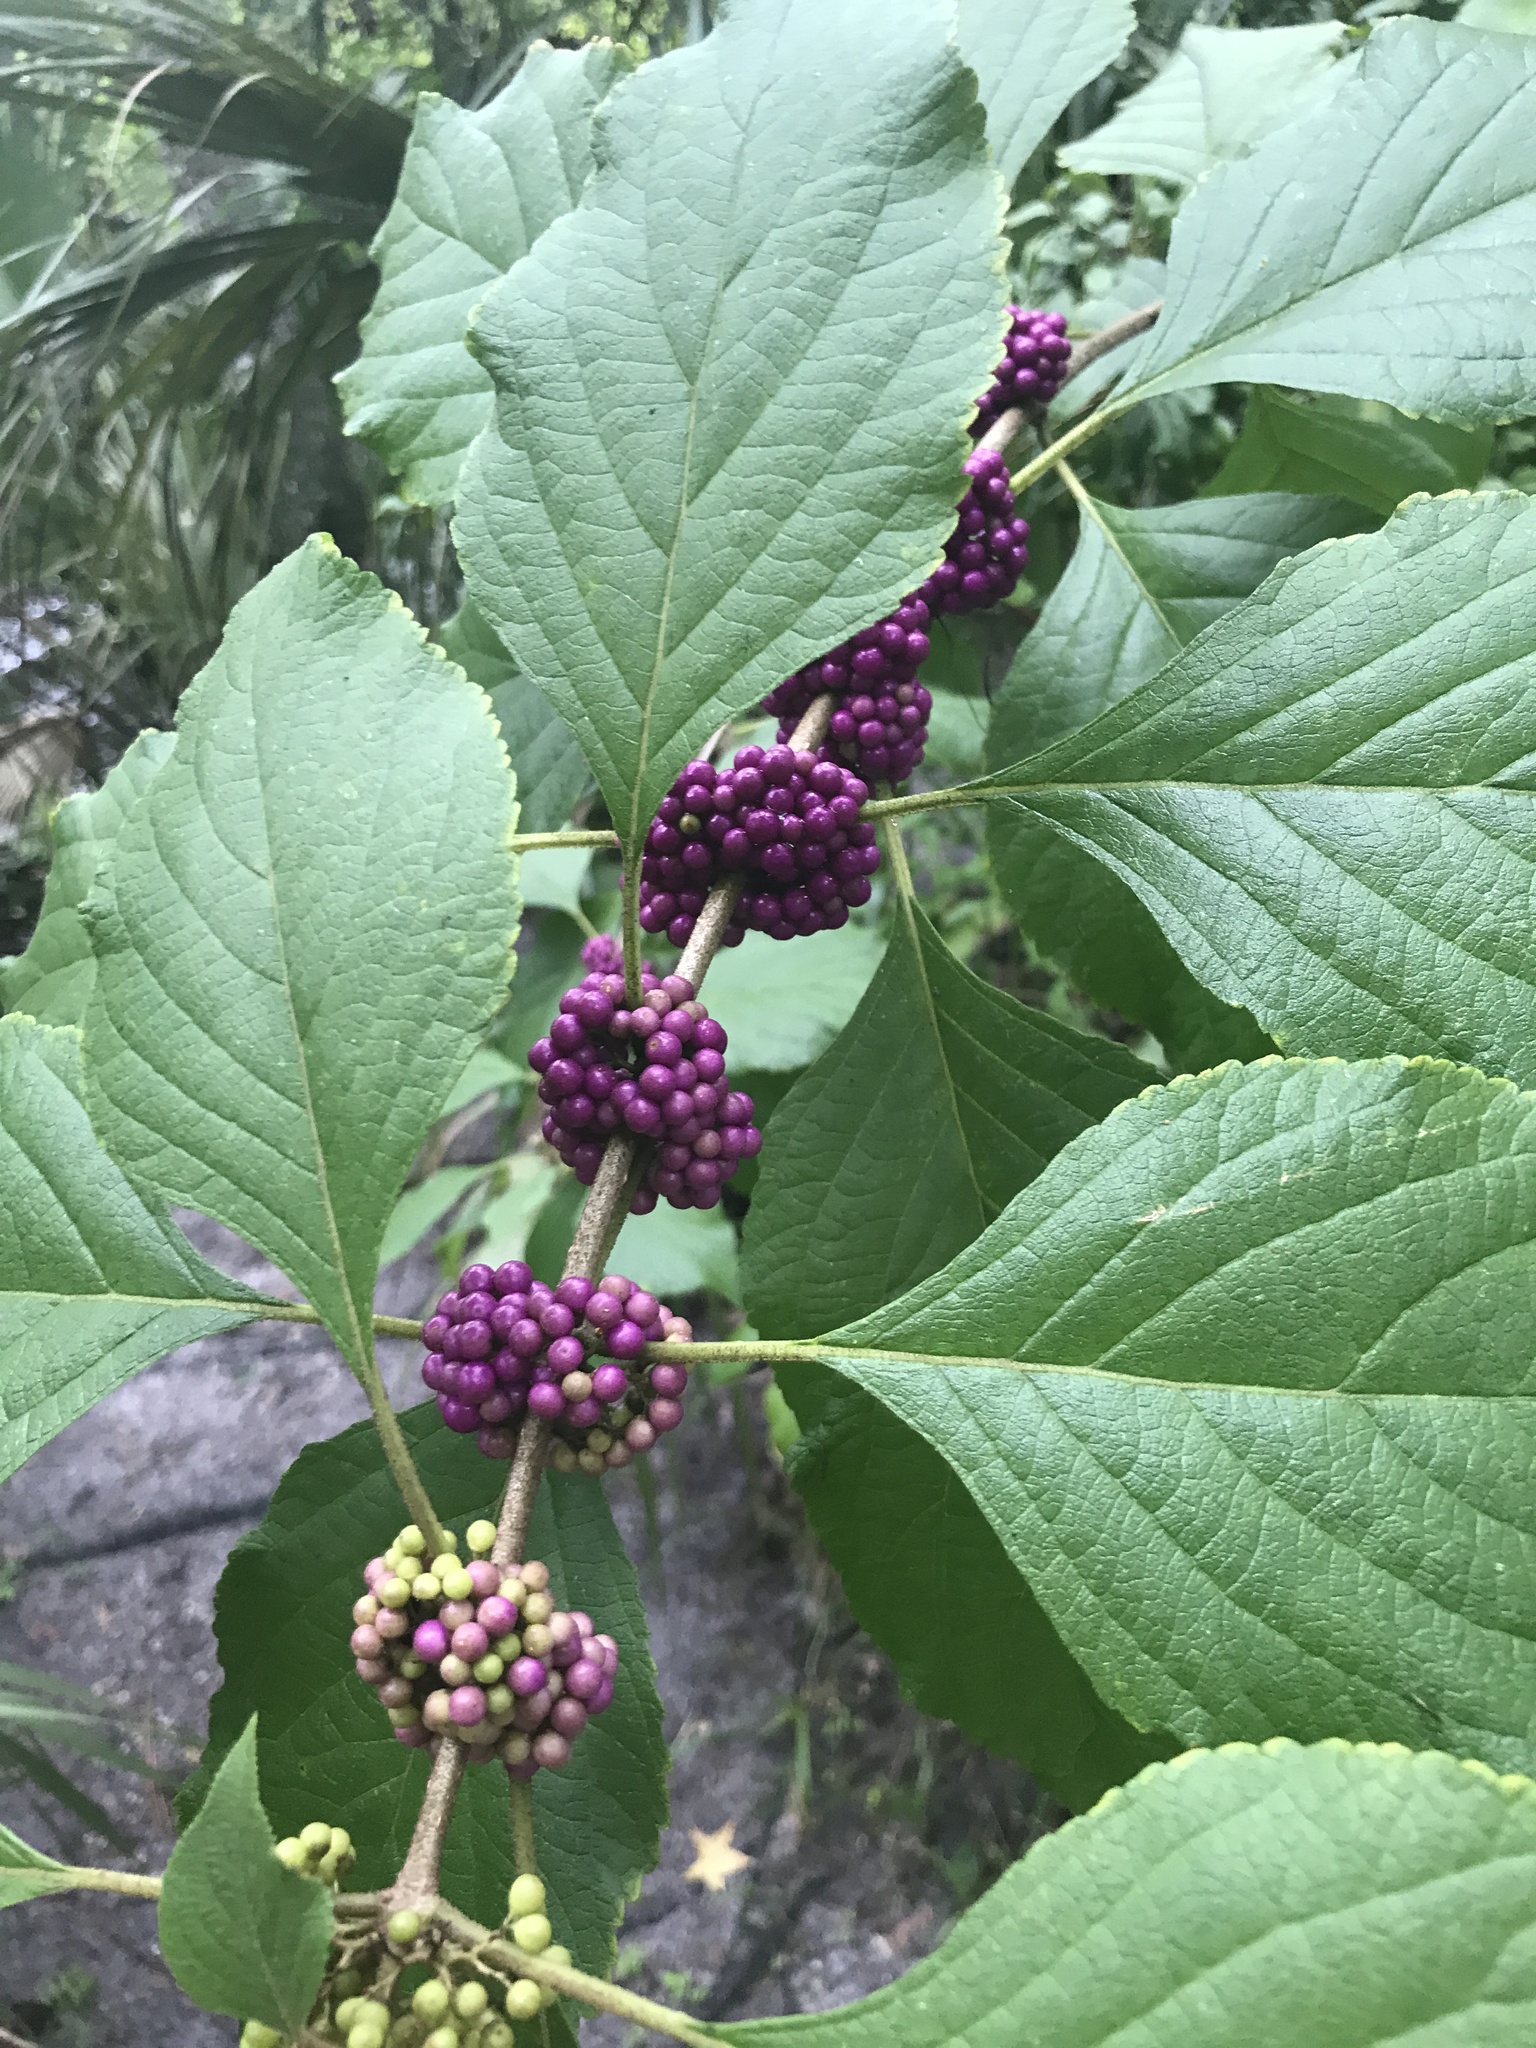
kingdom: Plantae
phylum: Tracheophyta
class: Magnoliopsida
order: Lamiales
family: Lamiaceae
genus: Callicarpa
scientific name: Callicarpa americana
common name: American beautyberry
